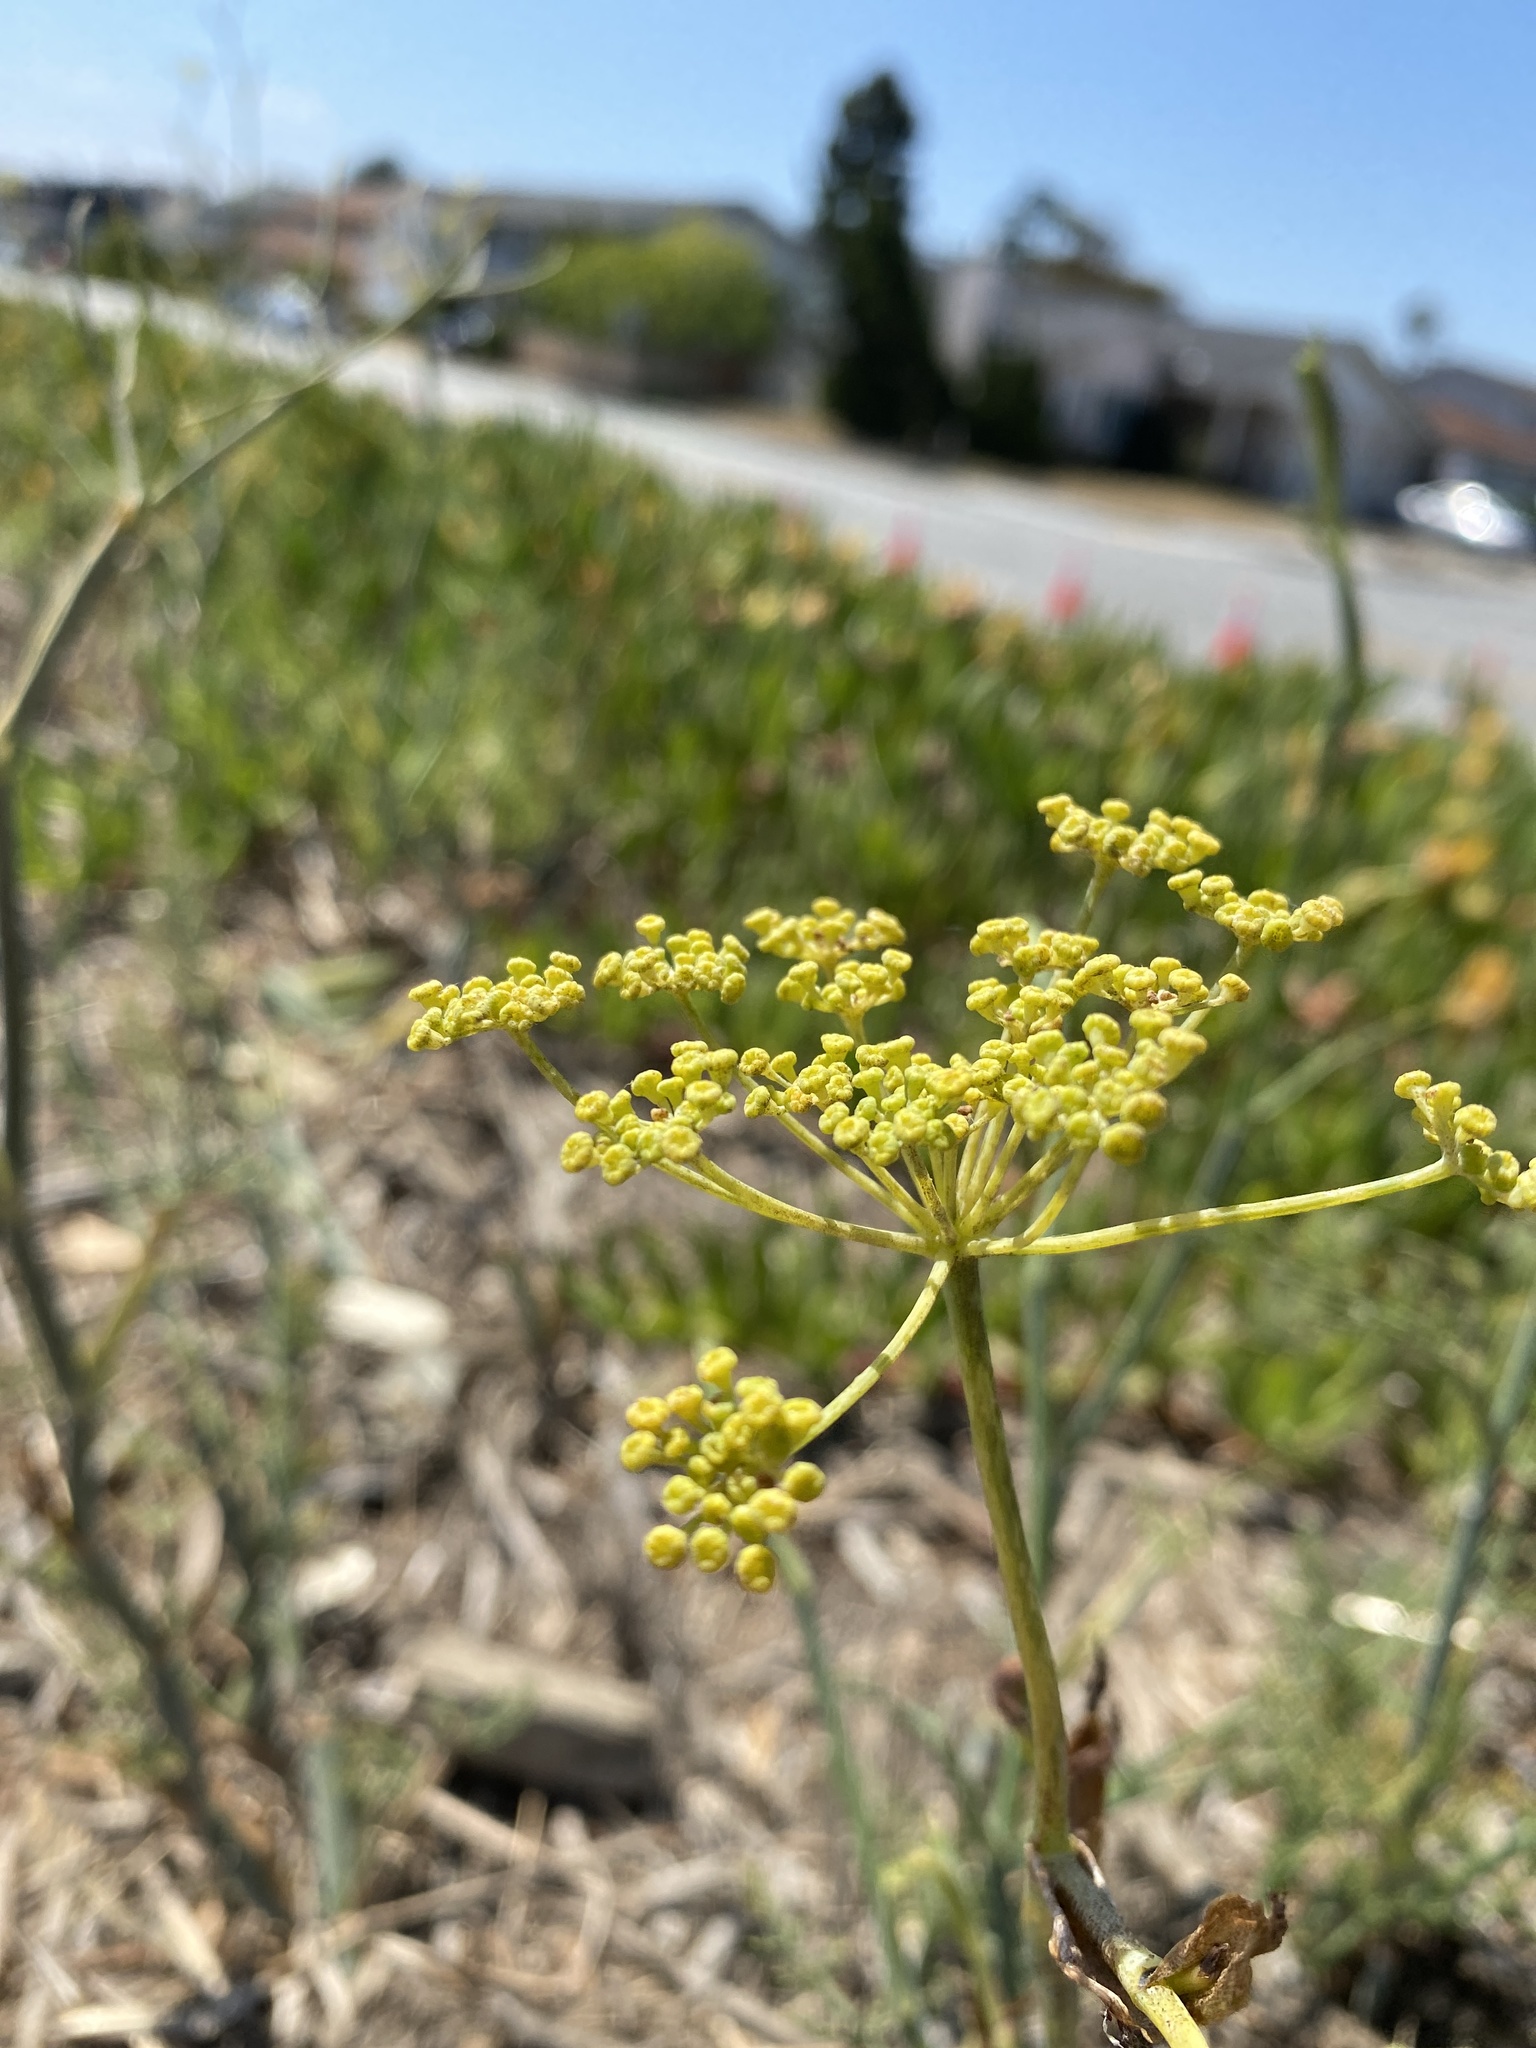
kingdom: Plantae
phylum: Tracheophyta
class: Magnoliopsida
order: Apiales
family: Apiaceae
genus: Foeniculum
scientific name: Foeniculum vulgare
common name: Fennel
